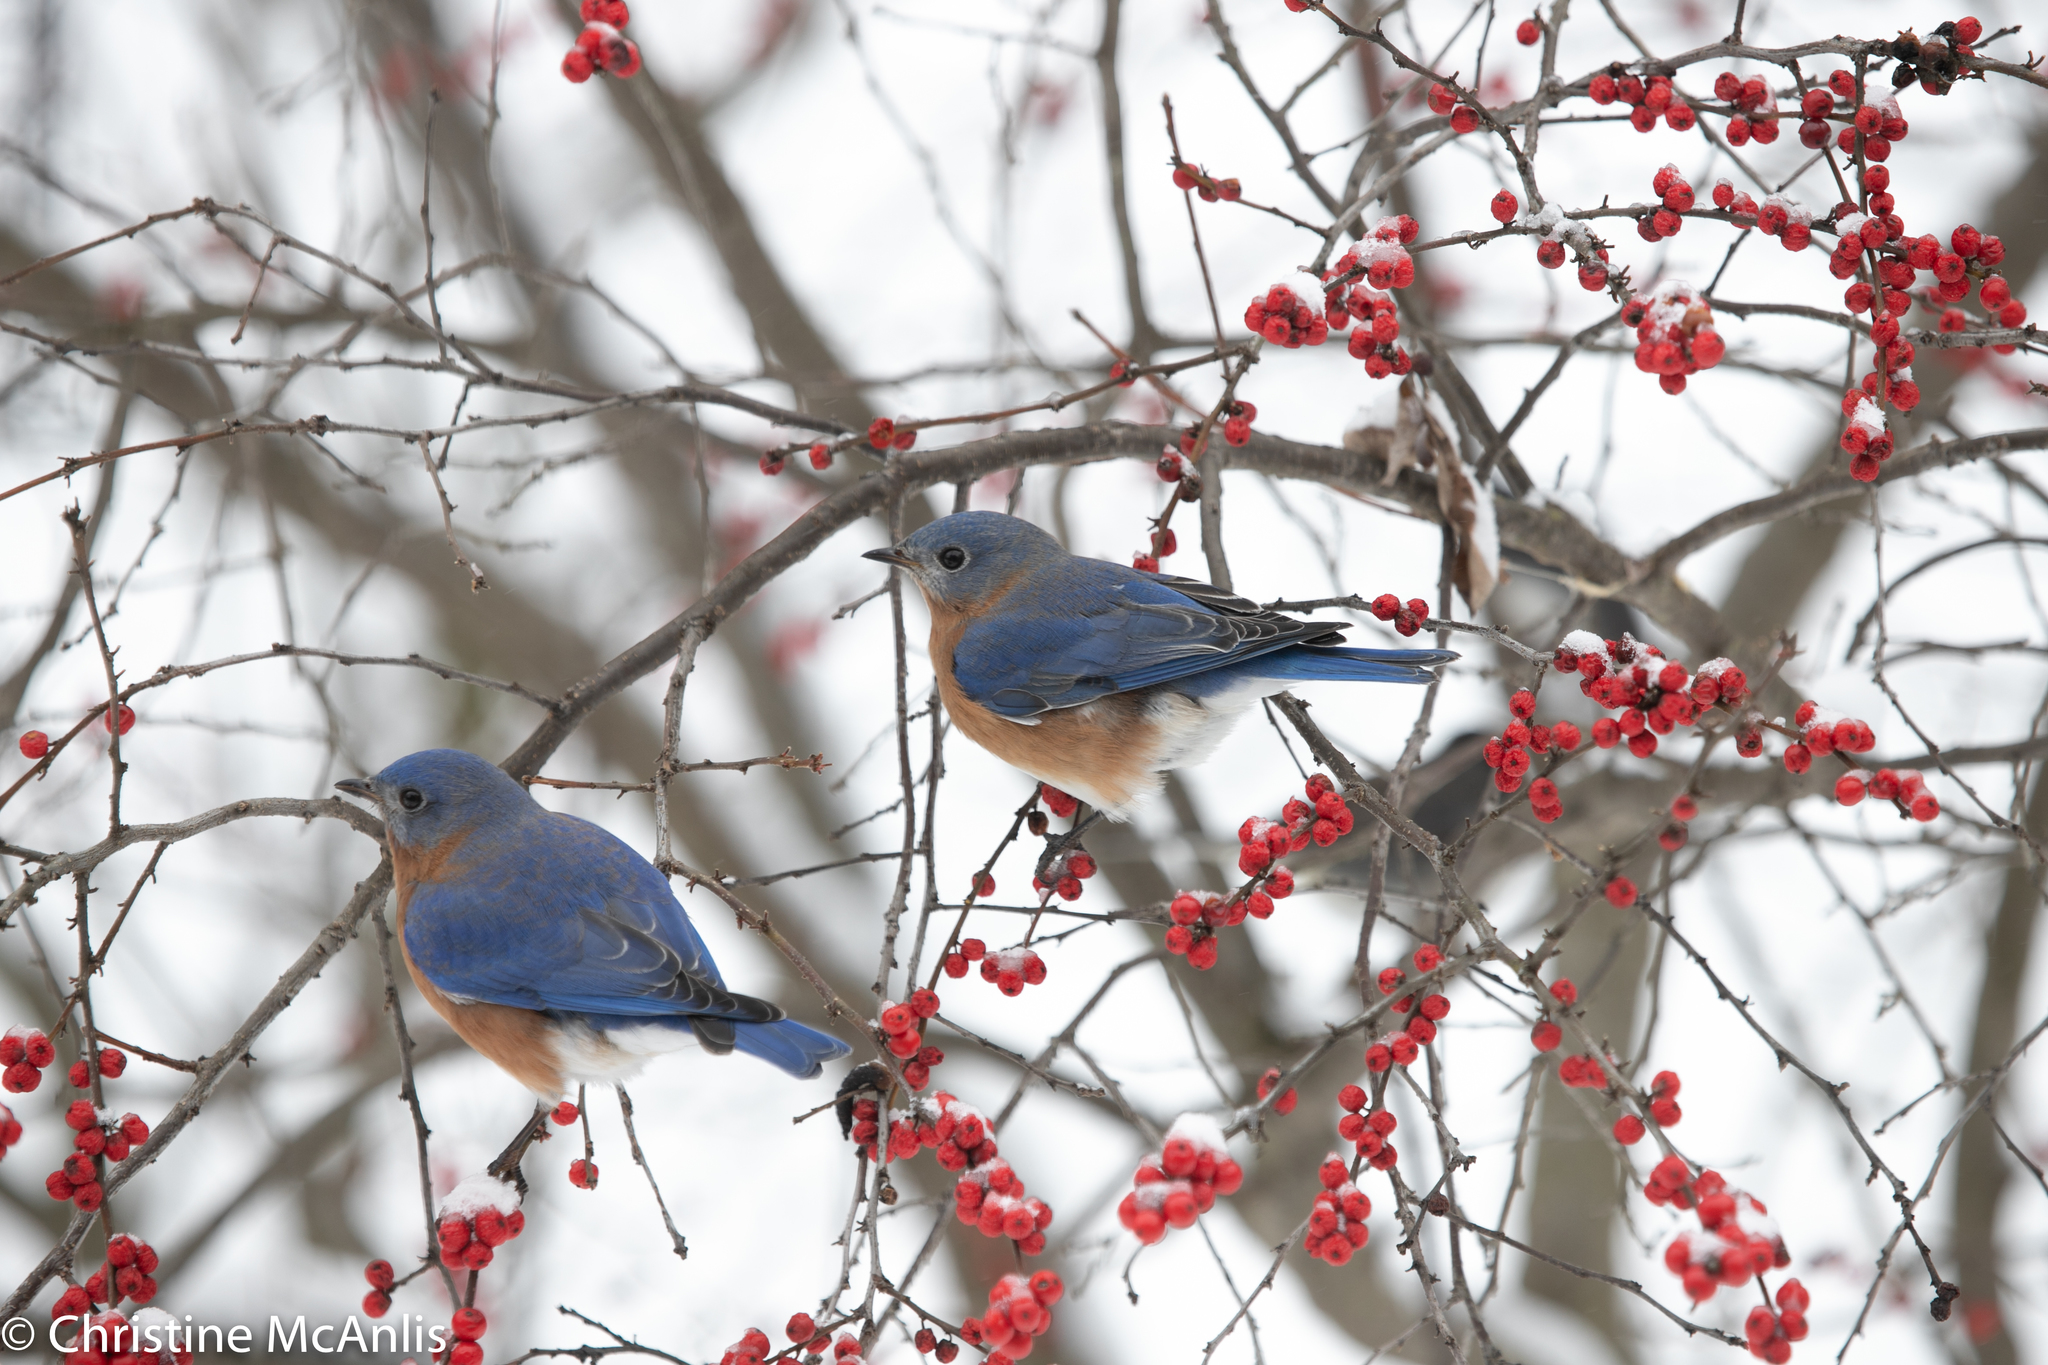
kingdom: Animalia
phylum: Chordata
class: Aves
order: Passeriformes
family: Turdidae
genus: Sialia
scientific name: Sialia sialis
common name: Eastern bluebird
